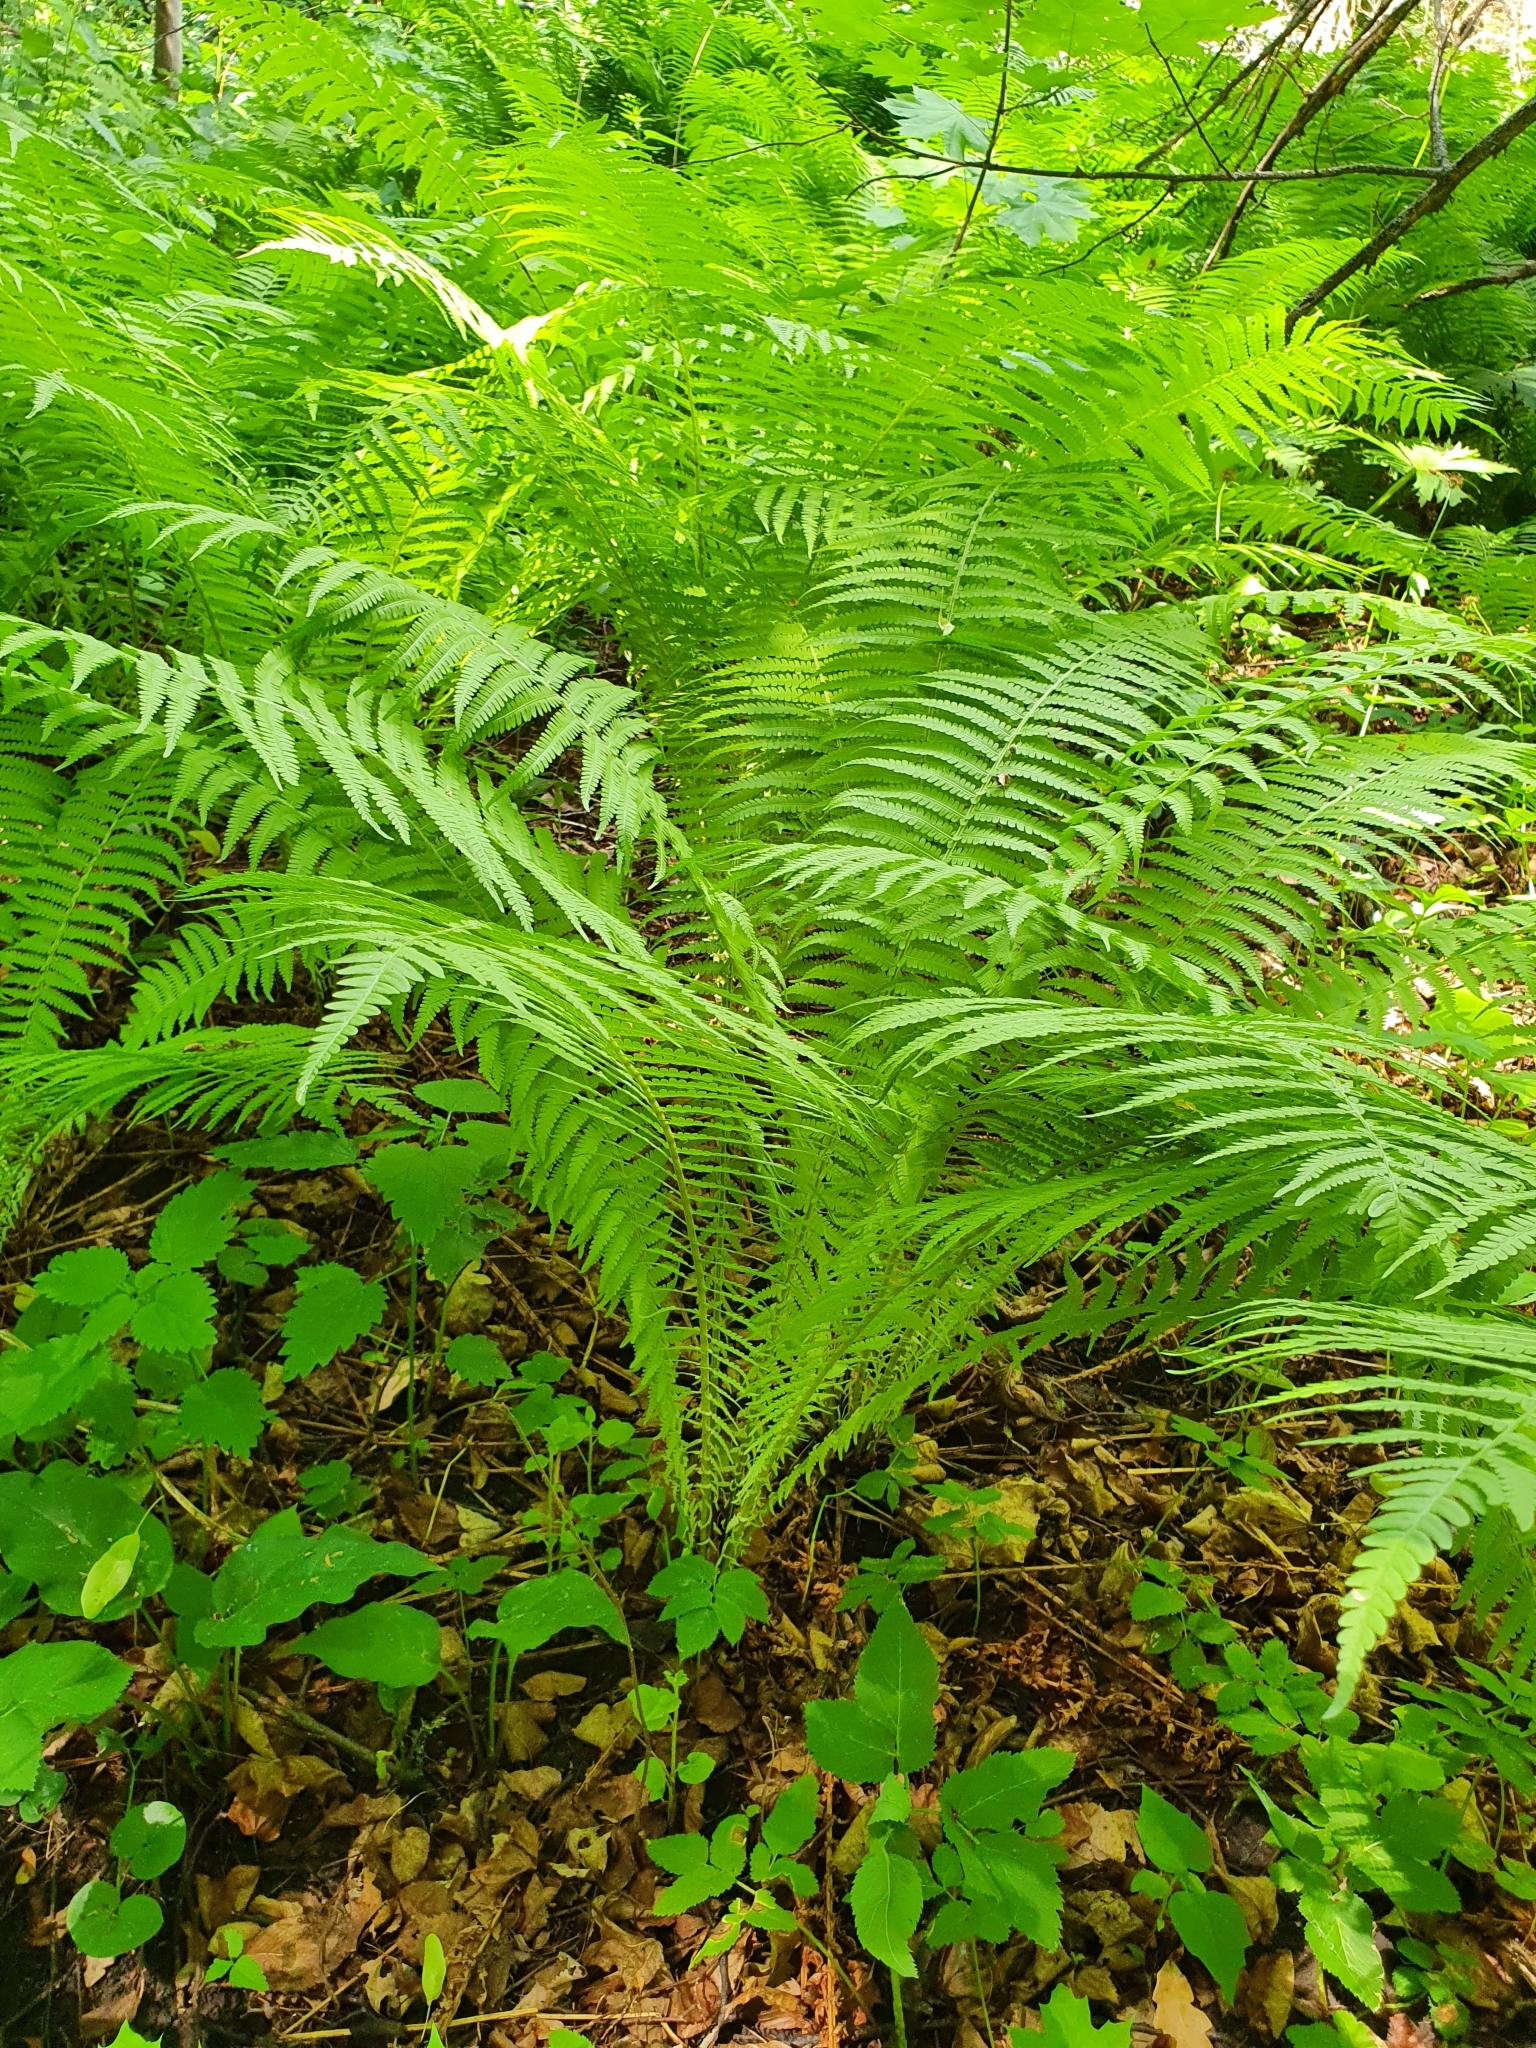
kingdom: Plantae
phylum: Tracheophyta
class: Polypodiopsida
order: Polypodiales
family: Onocleaceae
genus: Matteuccia
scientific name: Matteuccia struthiopteris
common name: Ostrich fern
